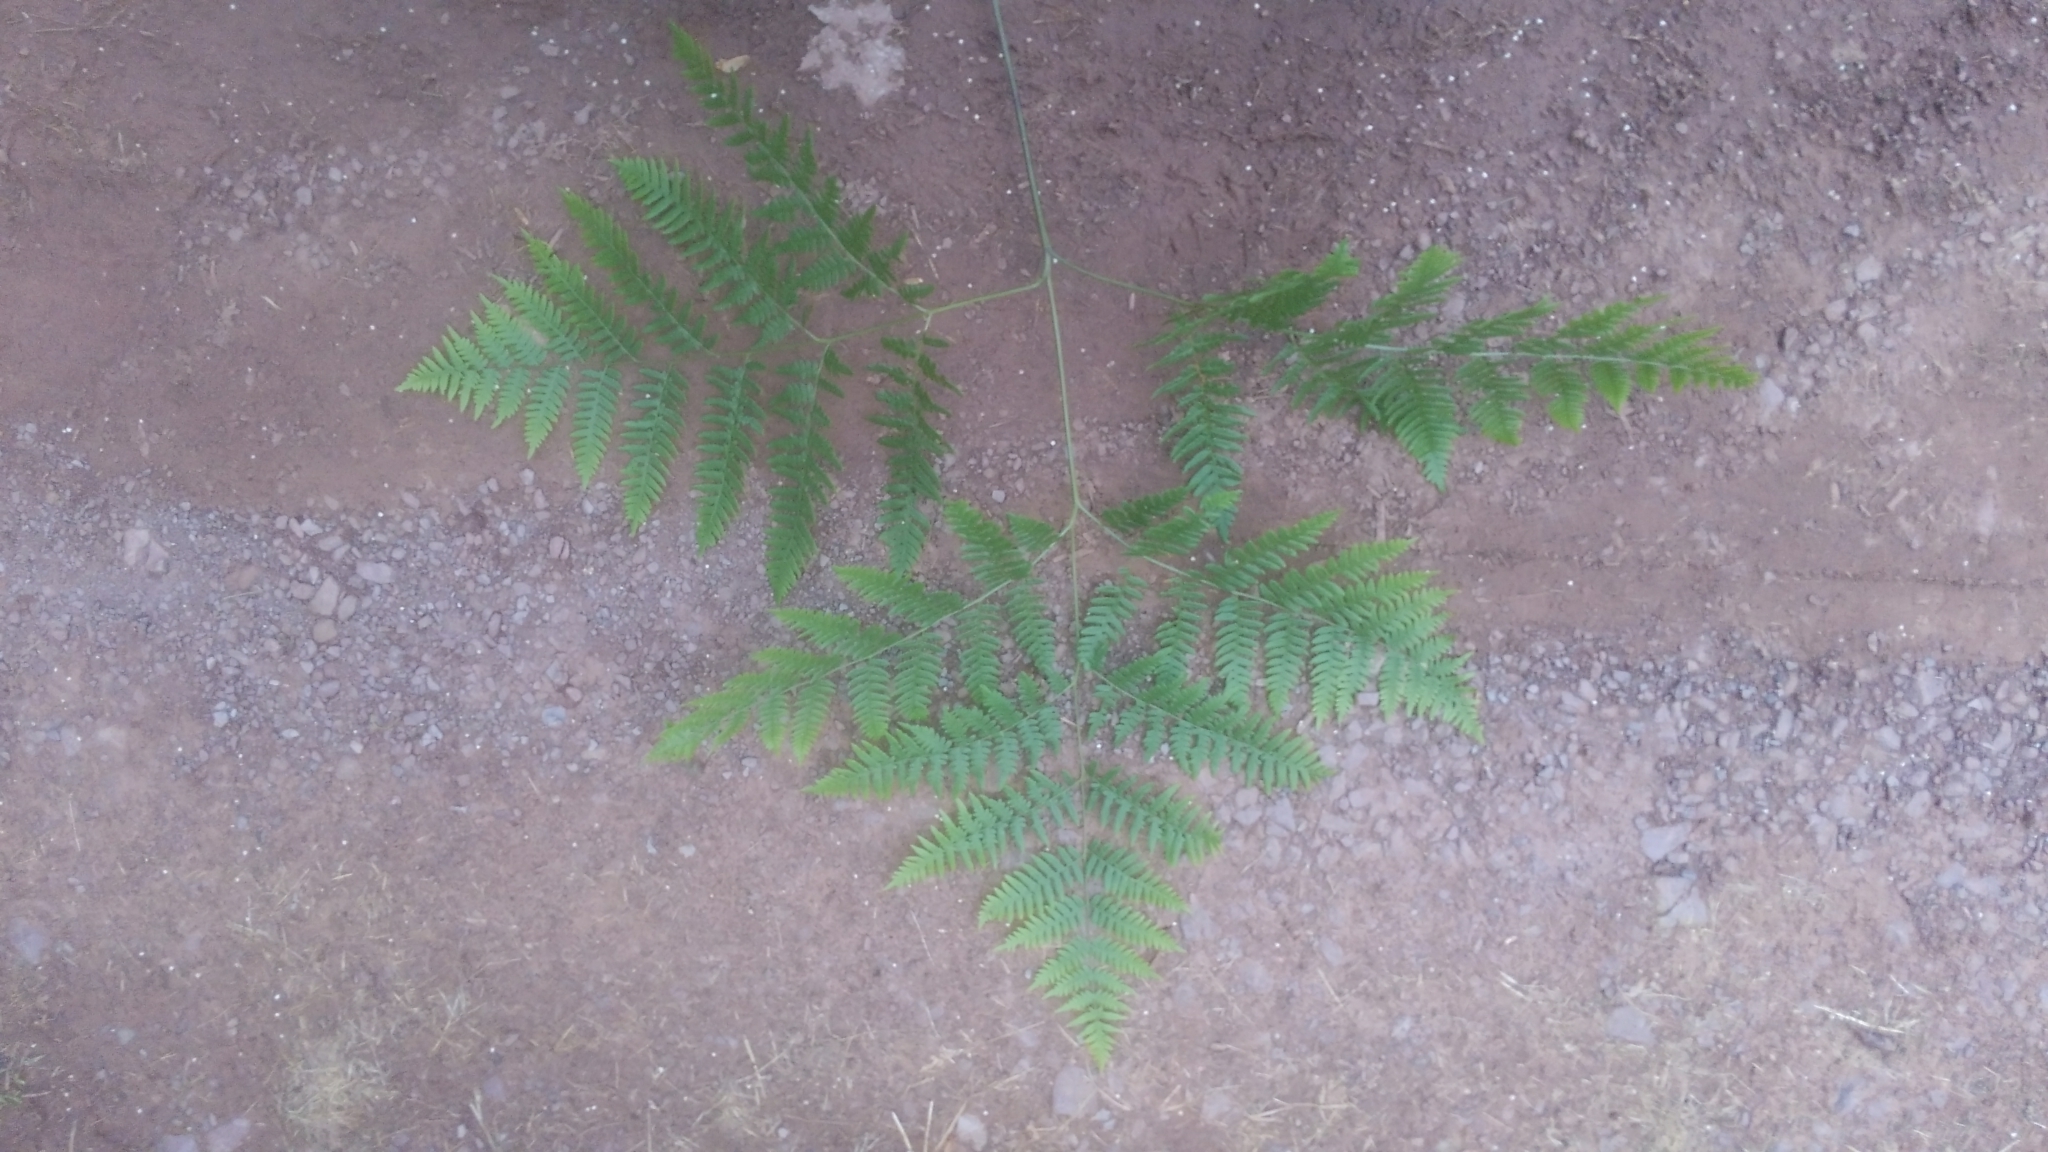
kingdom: Plantae
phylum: Tracheophyta
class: Polypodiopsida
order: Polypodiales
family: Dennstaedtiaceae
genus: Pteridium
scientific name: Pteridium aquilinum
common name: Bracken
